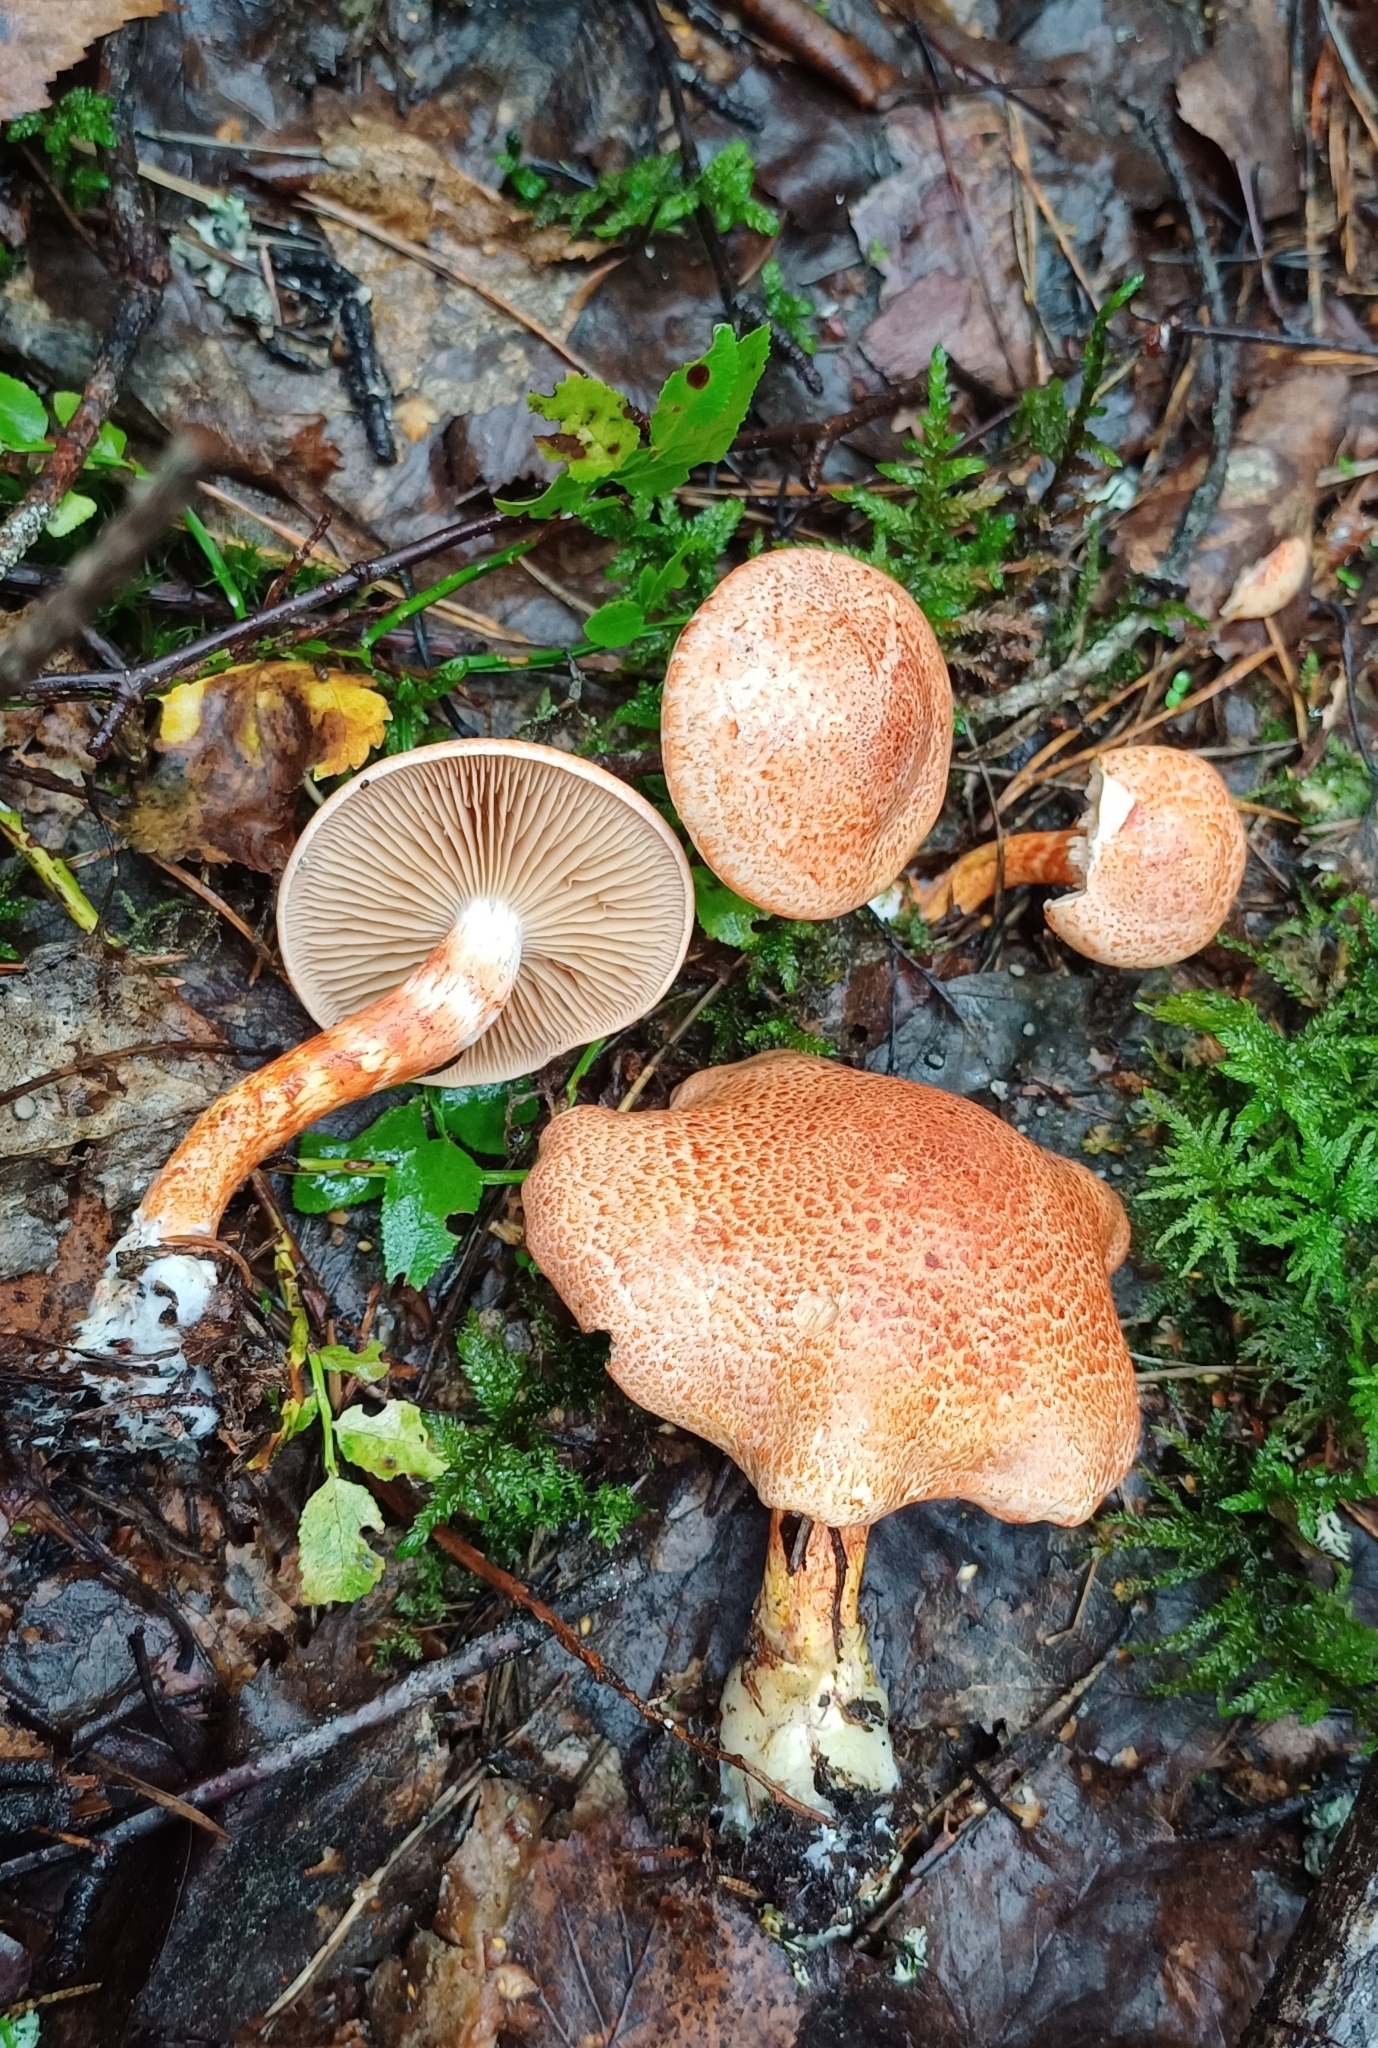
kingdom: Fungi
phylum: Basidiomycota
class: Agaricomycetes
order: Agaricales
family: Cortinariaceae
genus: Cortinarius
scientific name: Cortinarius bolaris
